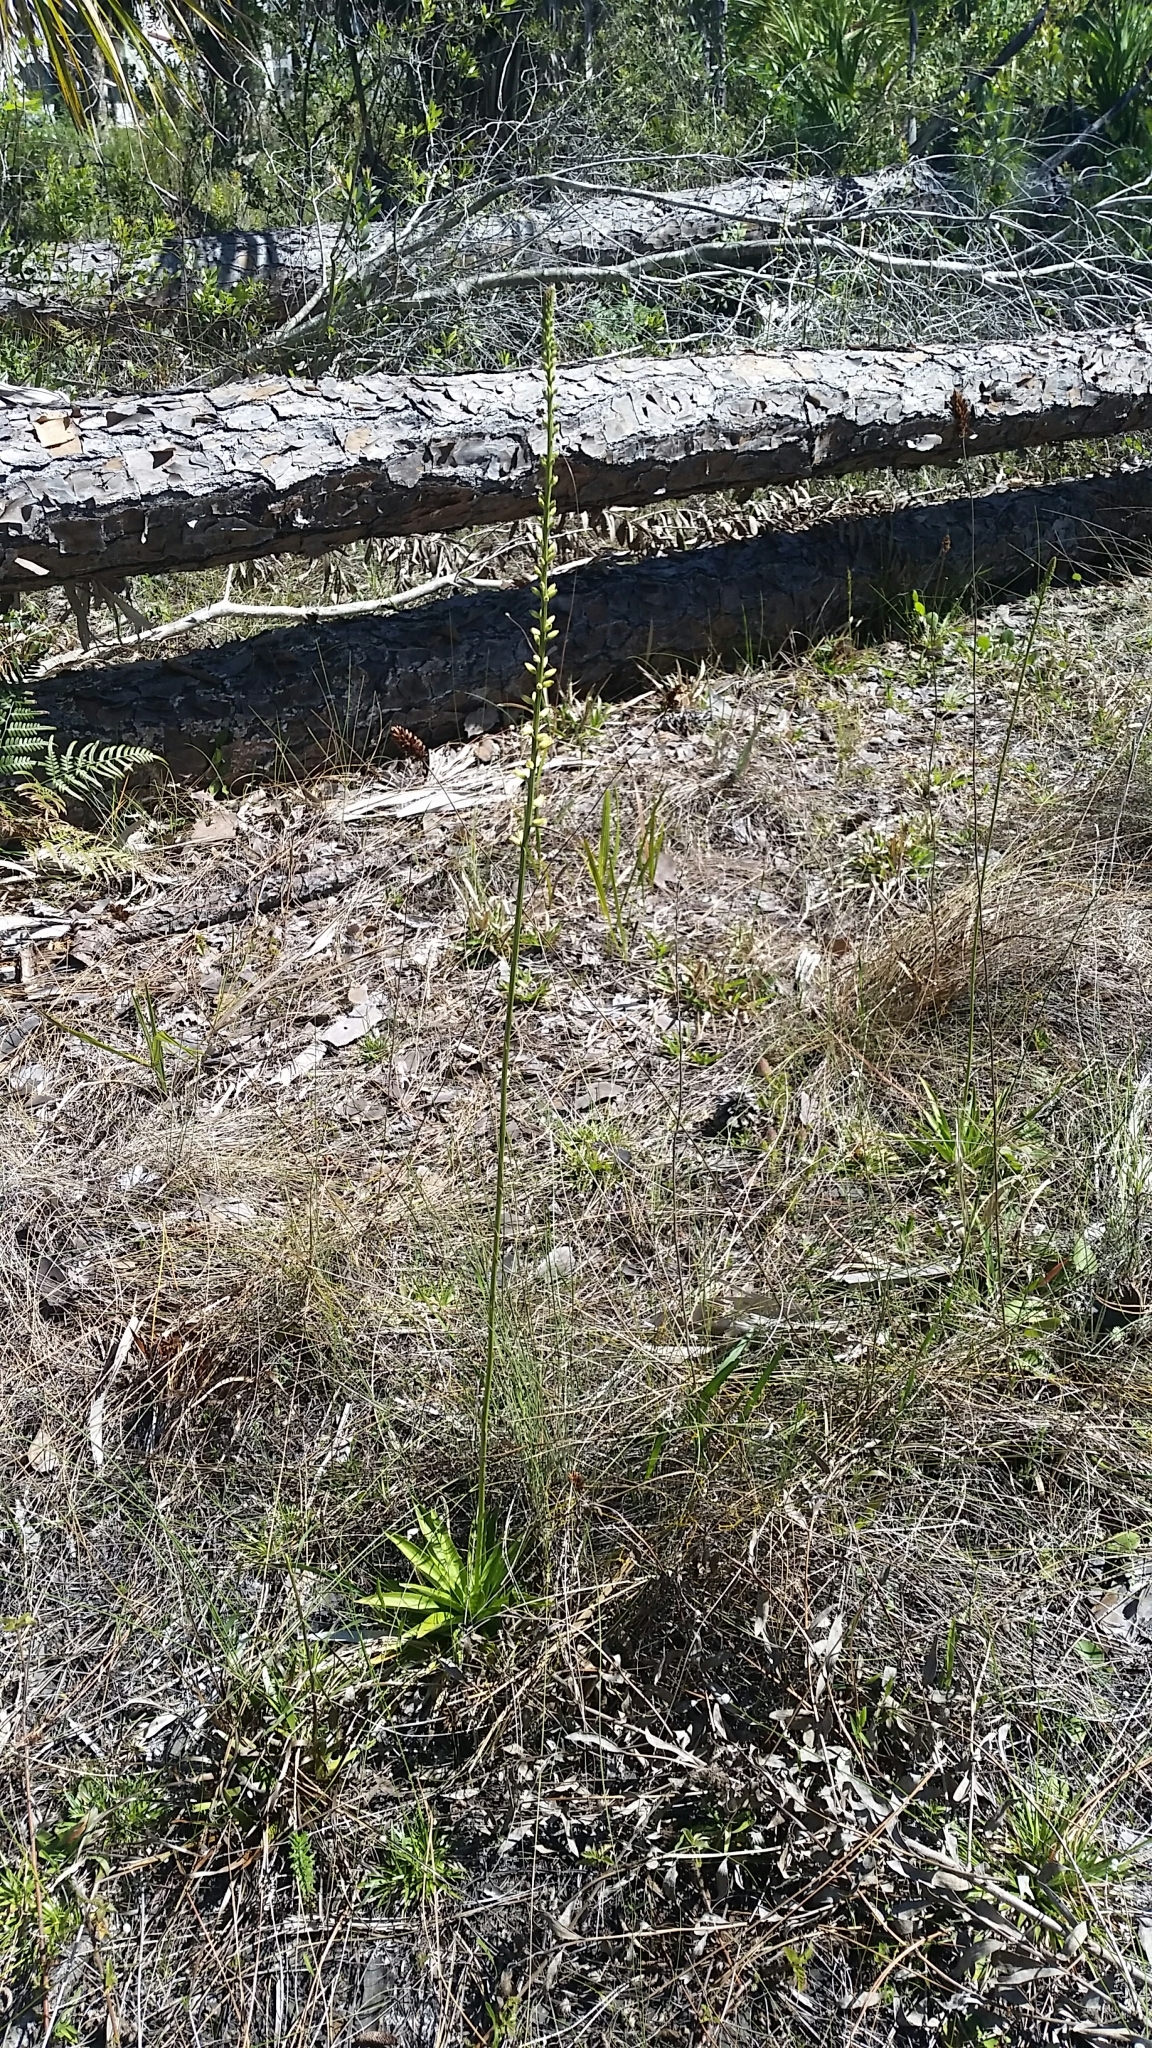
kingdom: Plantae
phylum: Tracheophyta
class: Liliopsida
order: Dioscoreales
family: Nartheciaceae
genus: Aletris
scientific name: Aletris lutea
